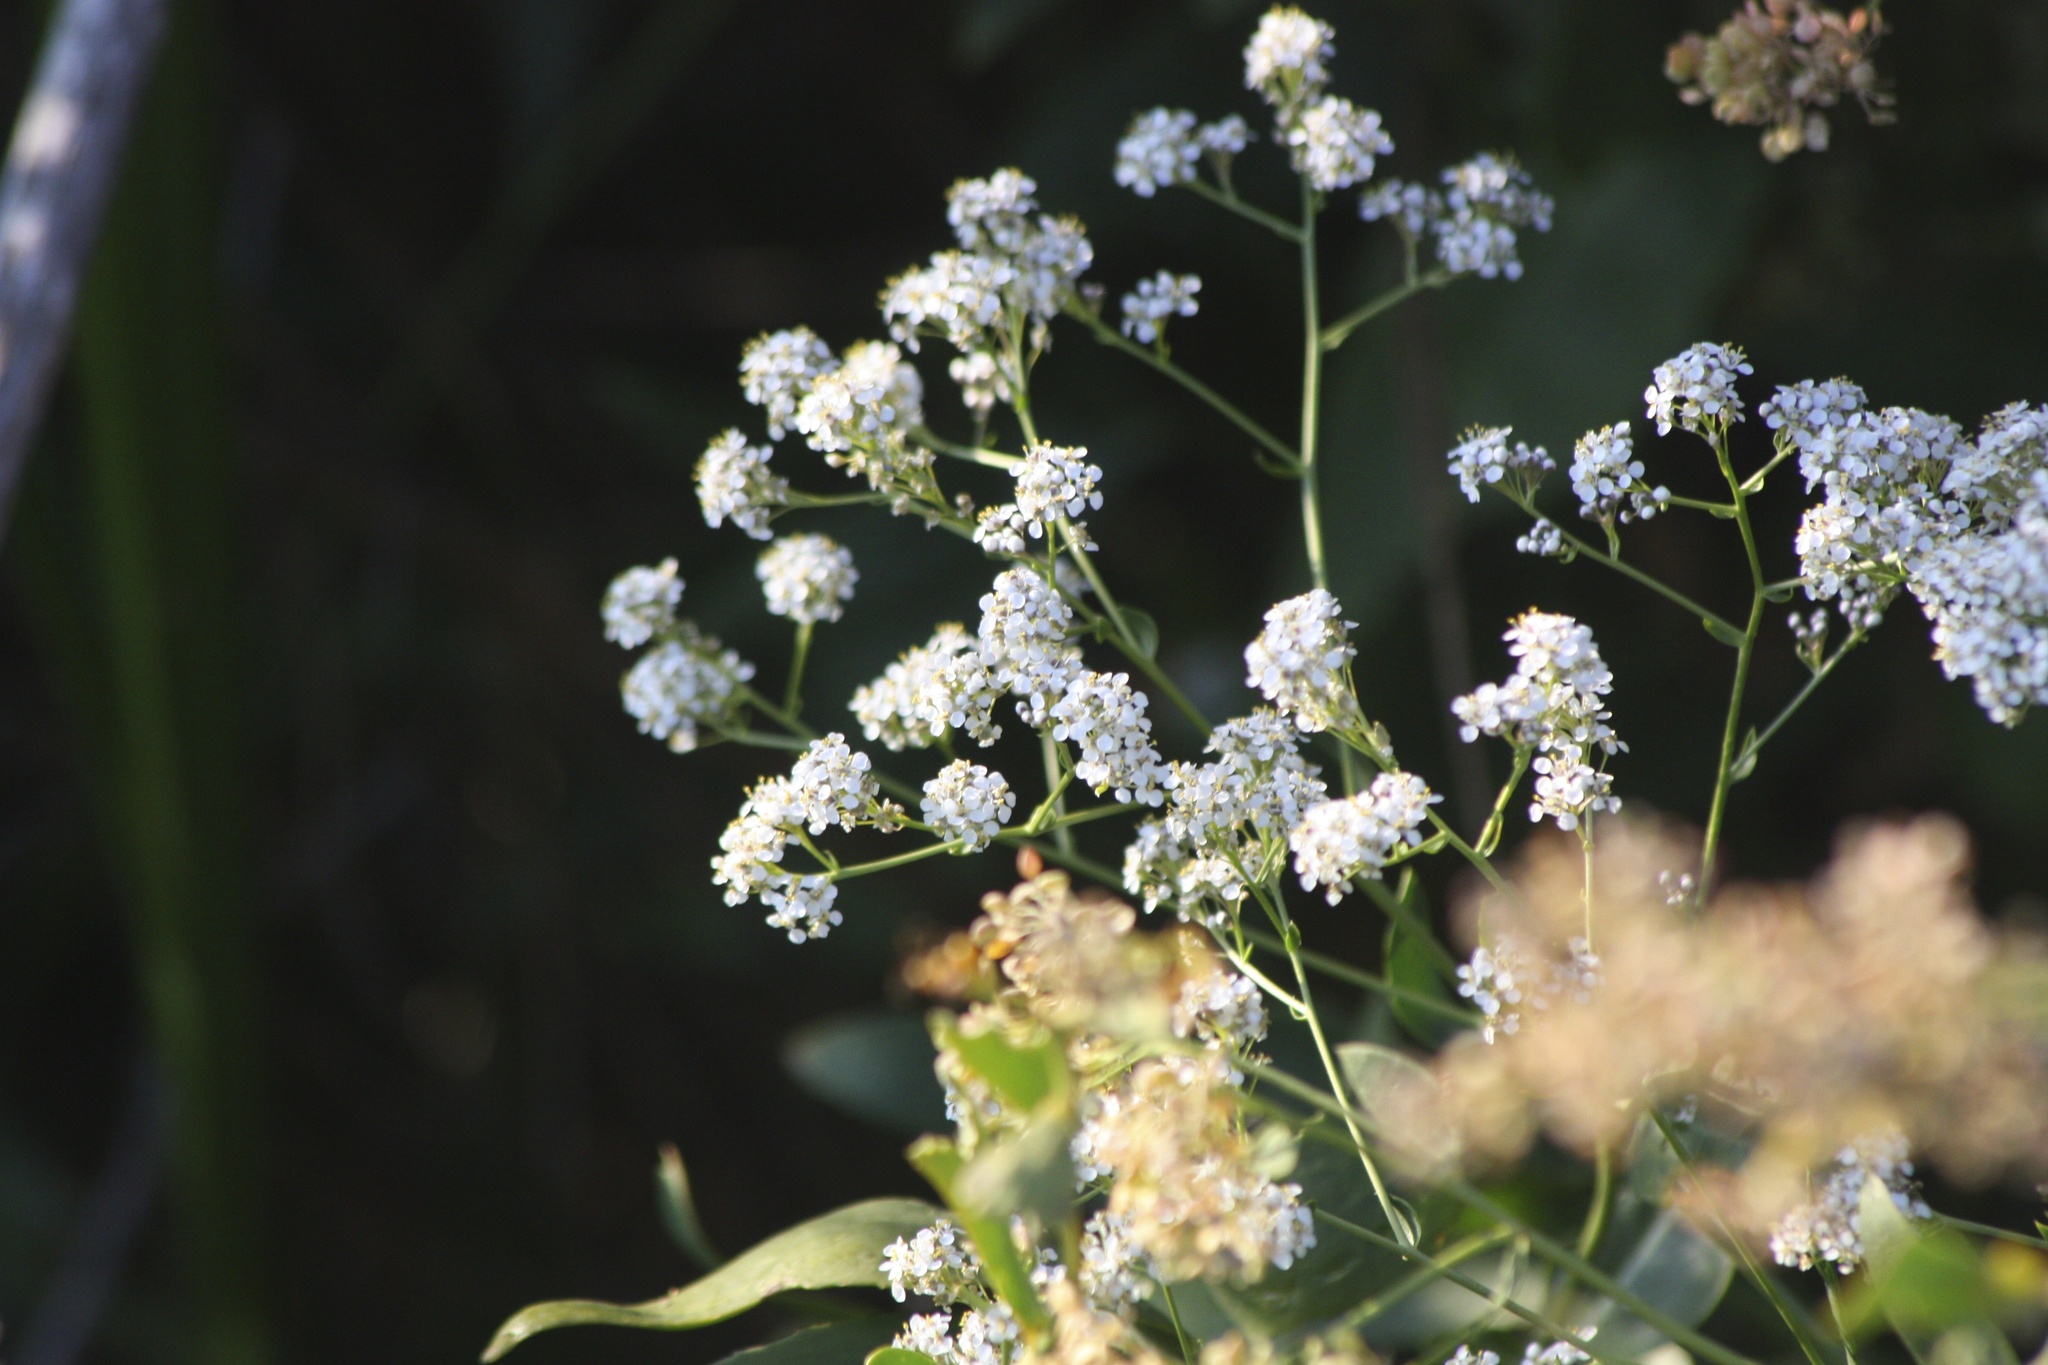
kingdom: Plantae
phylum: Tracheophyta
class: Magnoliopsida
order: Brassicales
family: Brassicaceae
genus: Lepidium
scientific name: Lepidium latifolium
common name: Dittander
